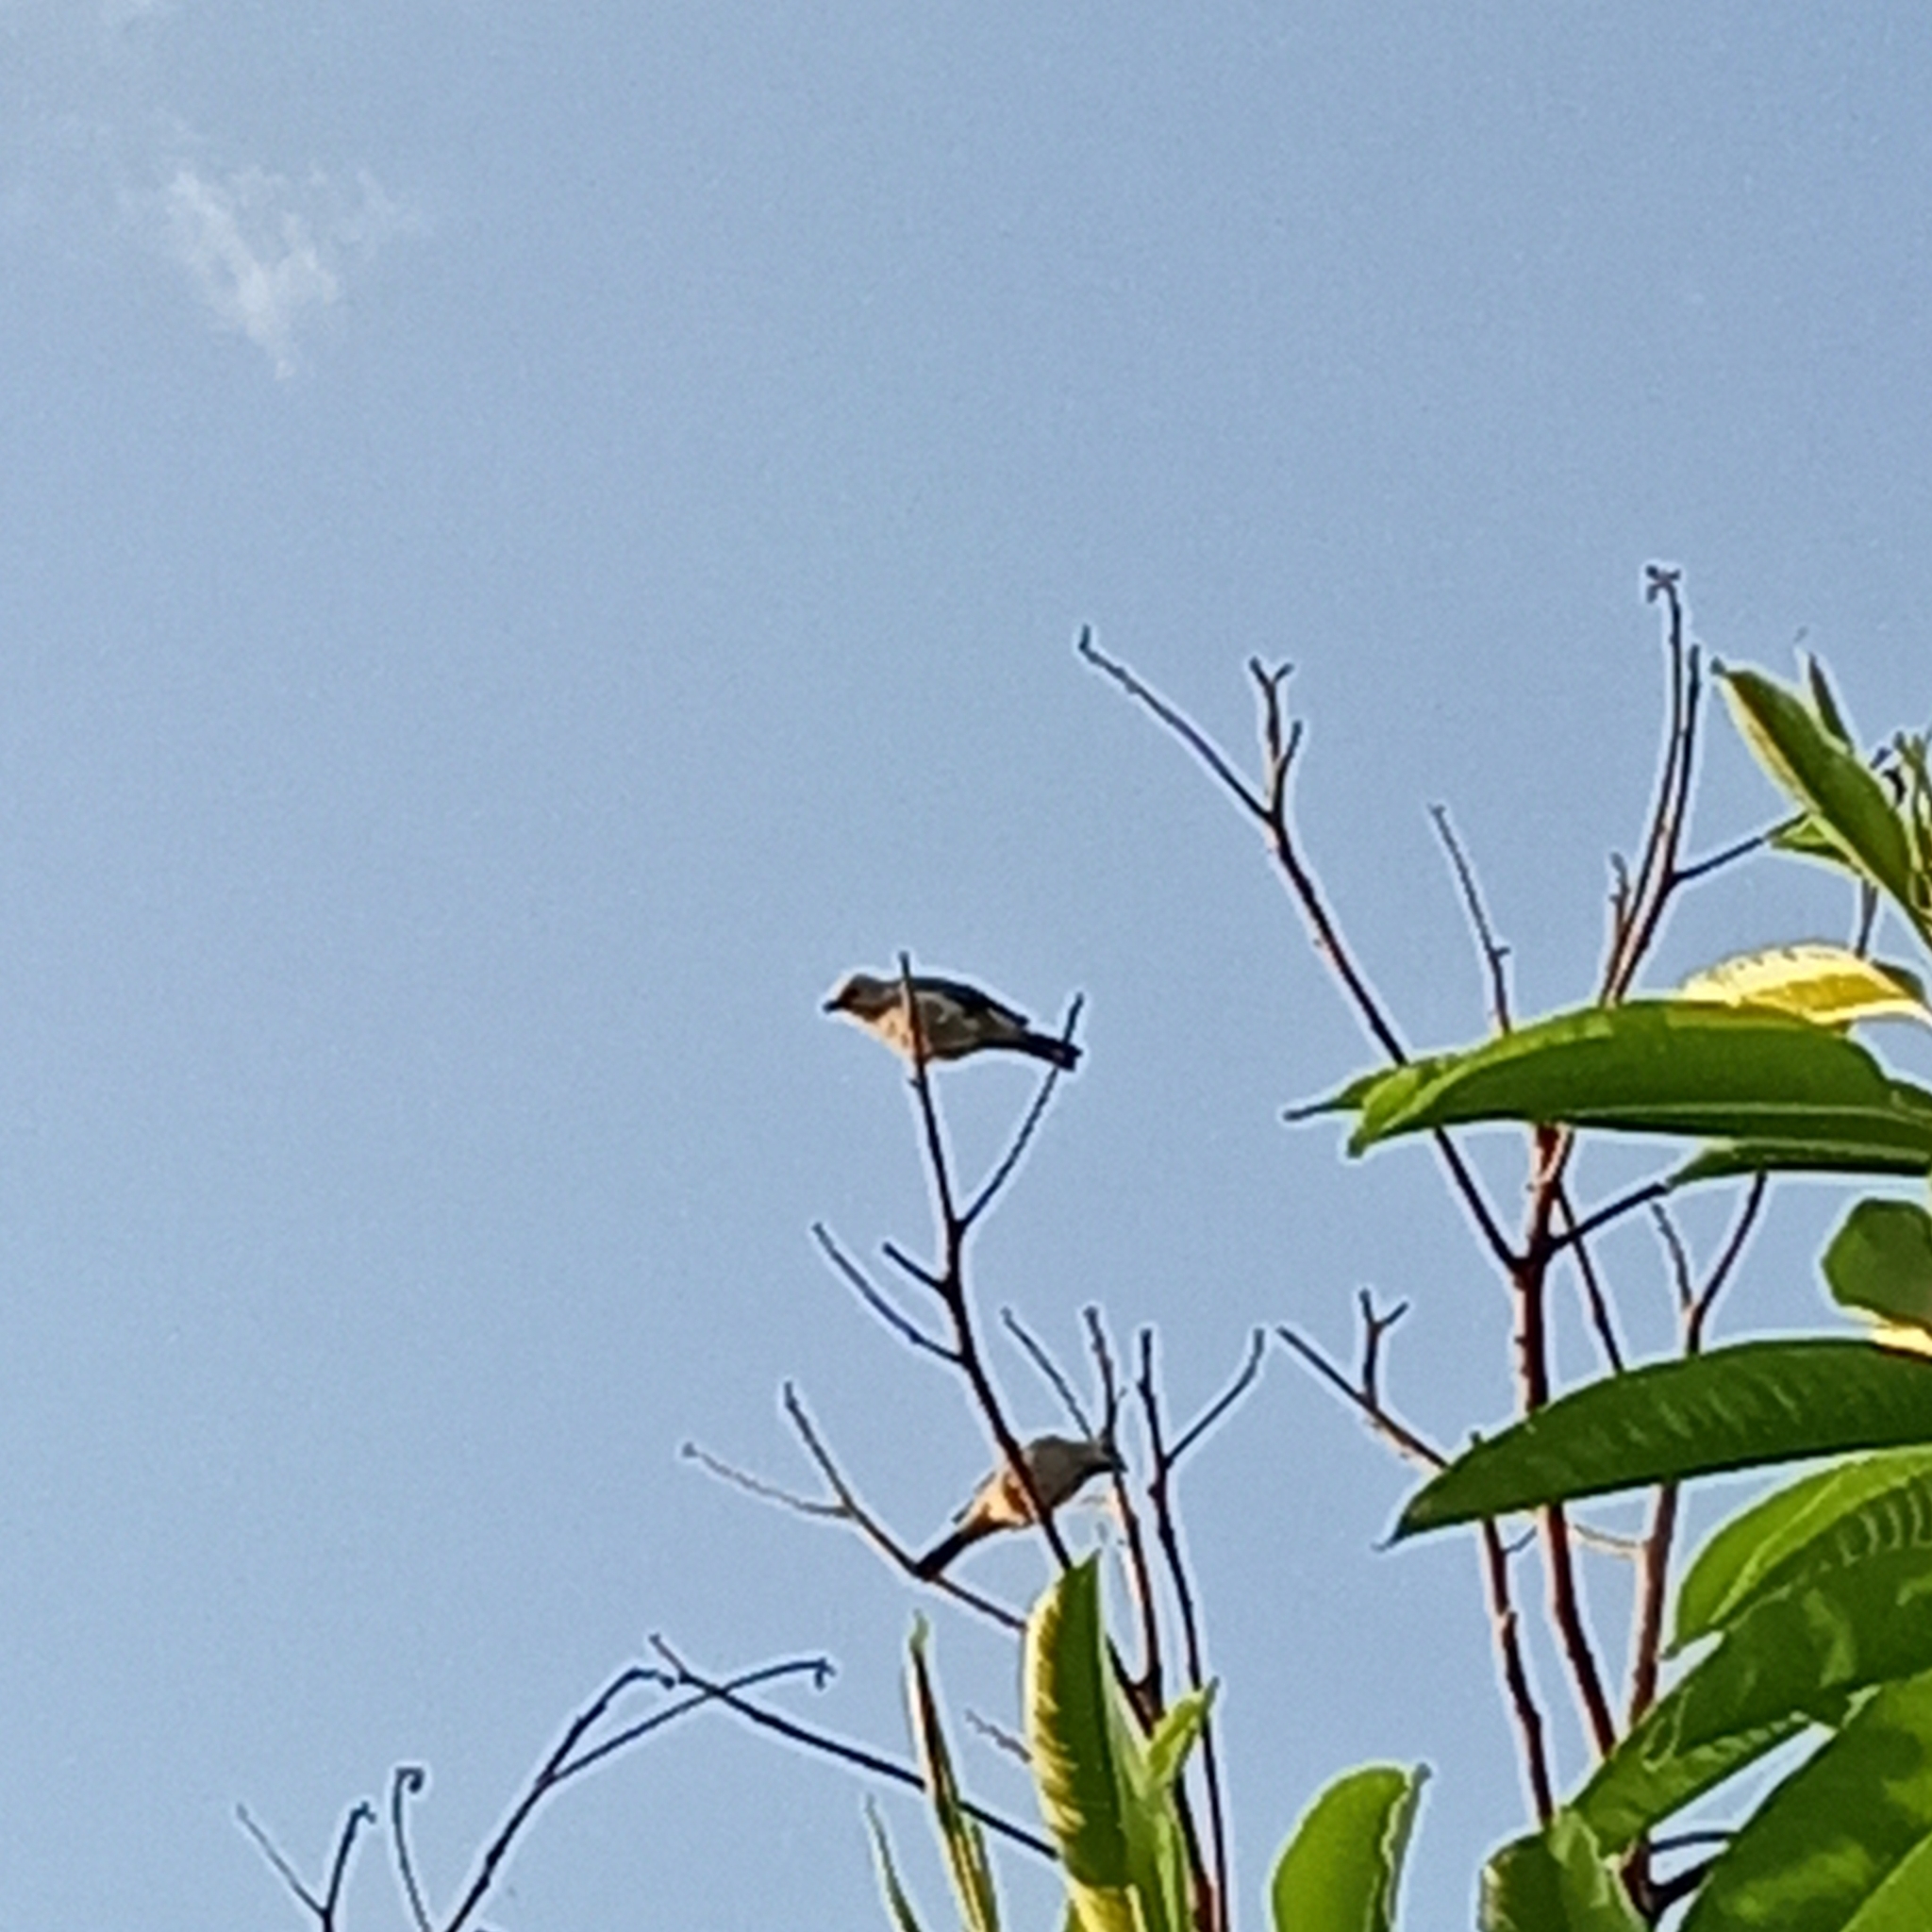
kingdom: Animalia
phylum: Chordata
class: Aves
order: Passeriformes
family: Thraupidae
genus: Thraupis
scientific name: Thraupis palmarum
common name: Palm tanager
